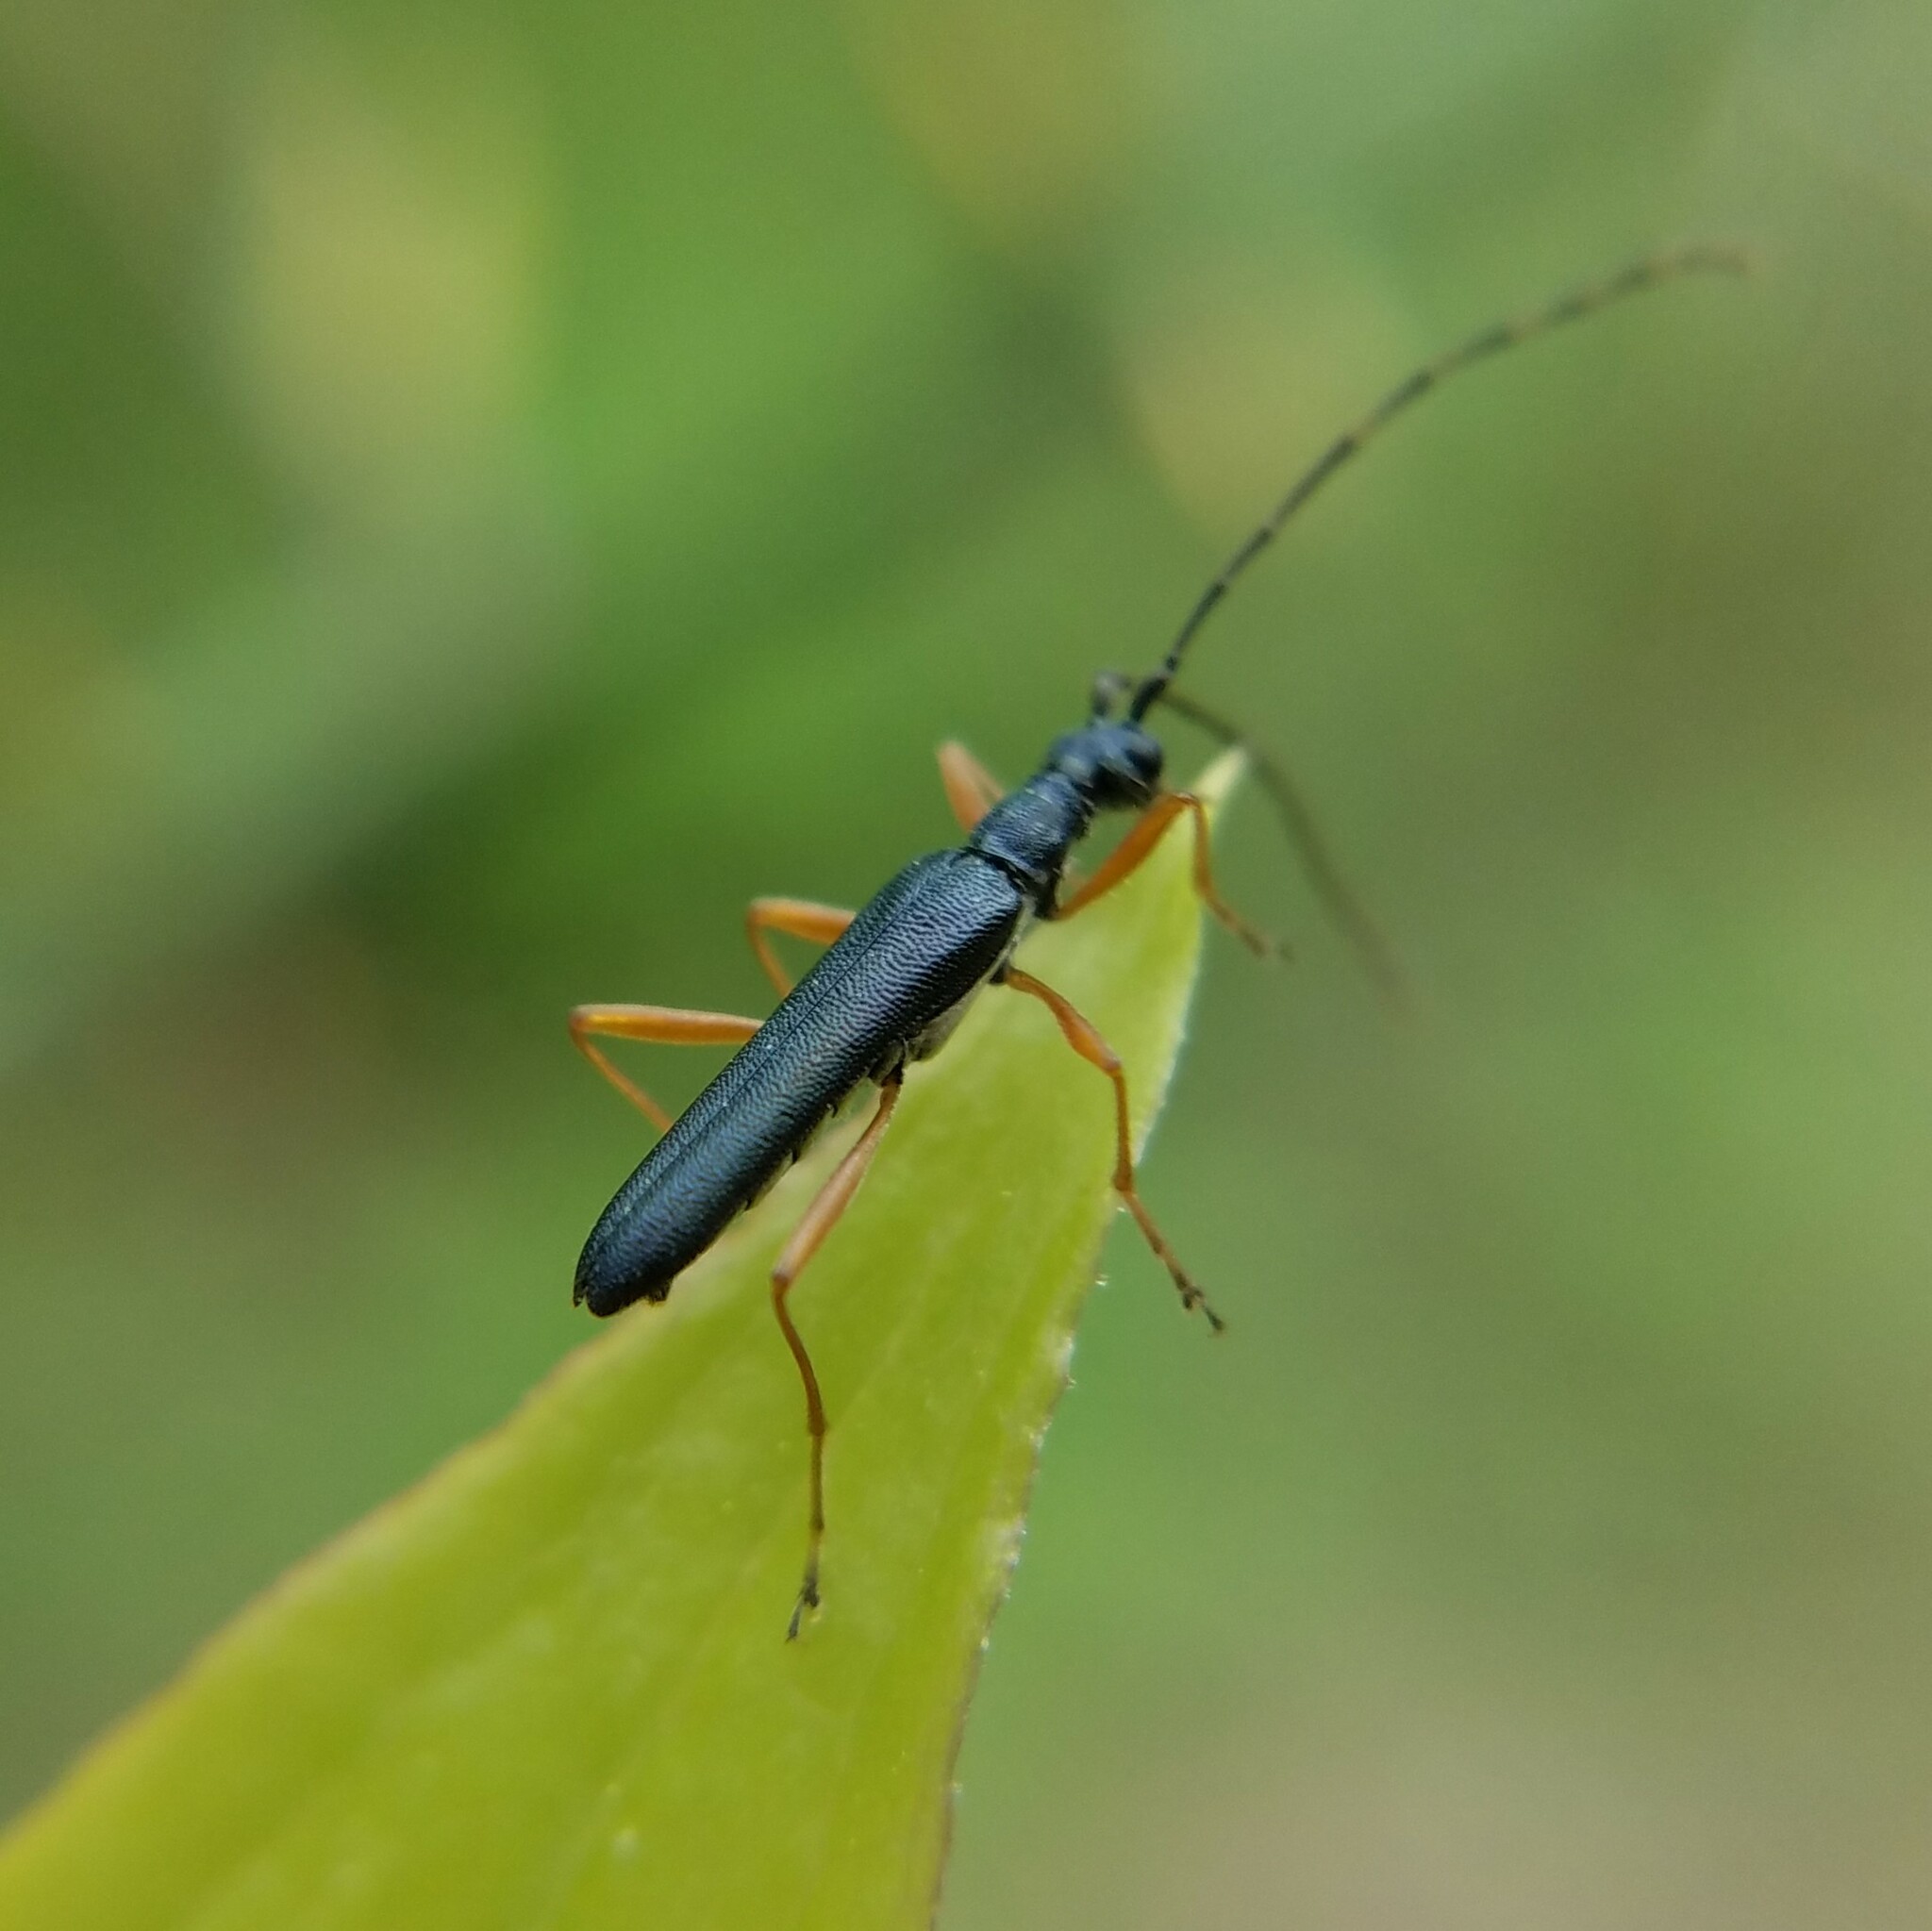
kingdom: Animalia
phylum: Arthropoda
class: Insecta
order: Coleoptera
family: Cerambycidae
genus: Encyclops
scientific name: Encyclops caerulea
